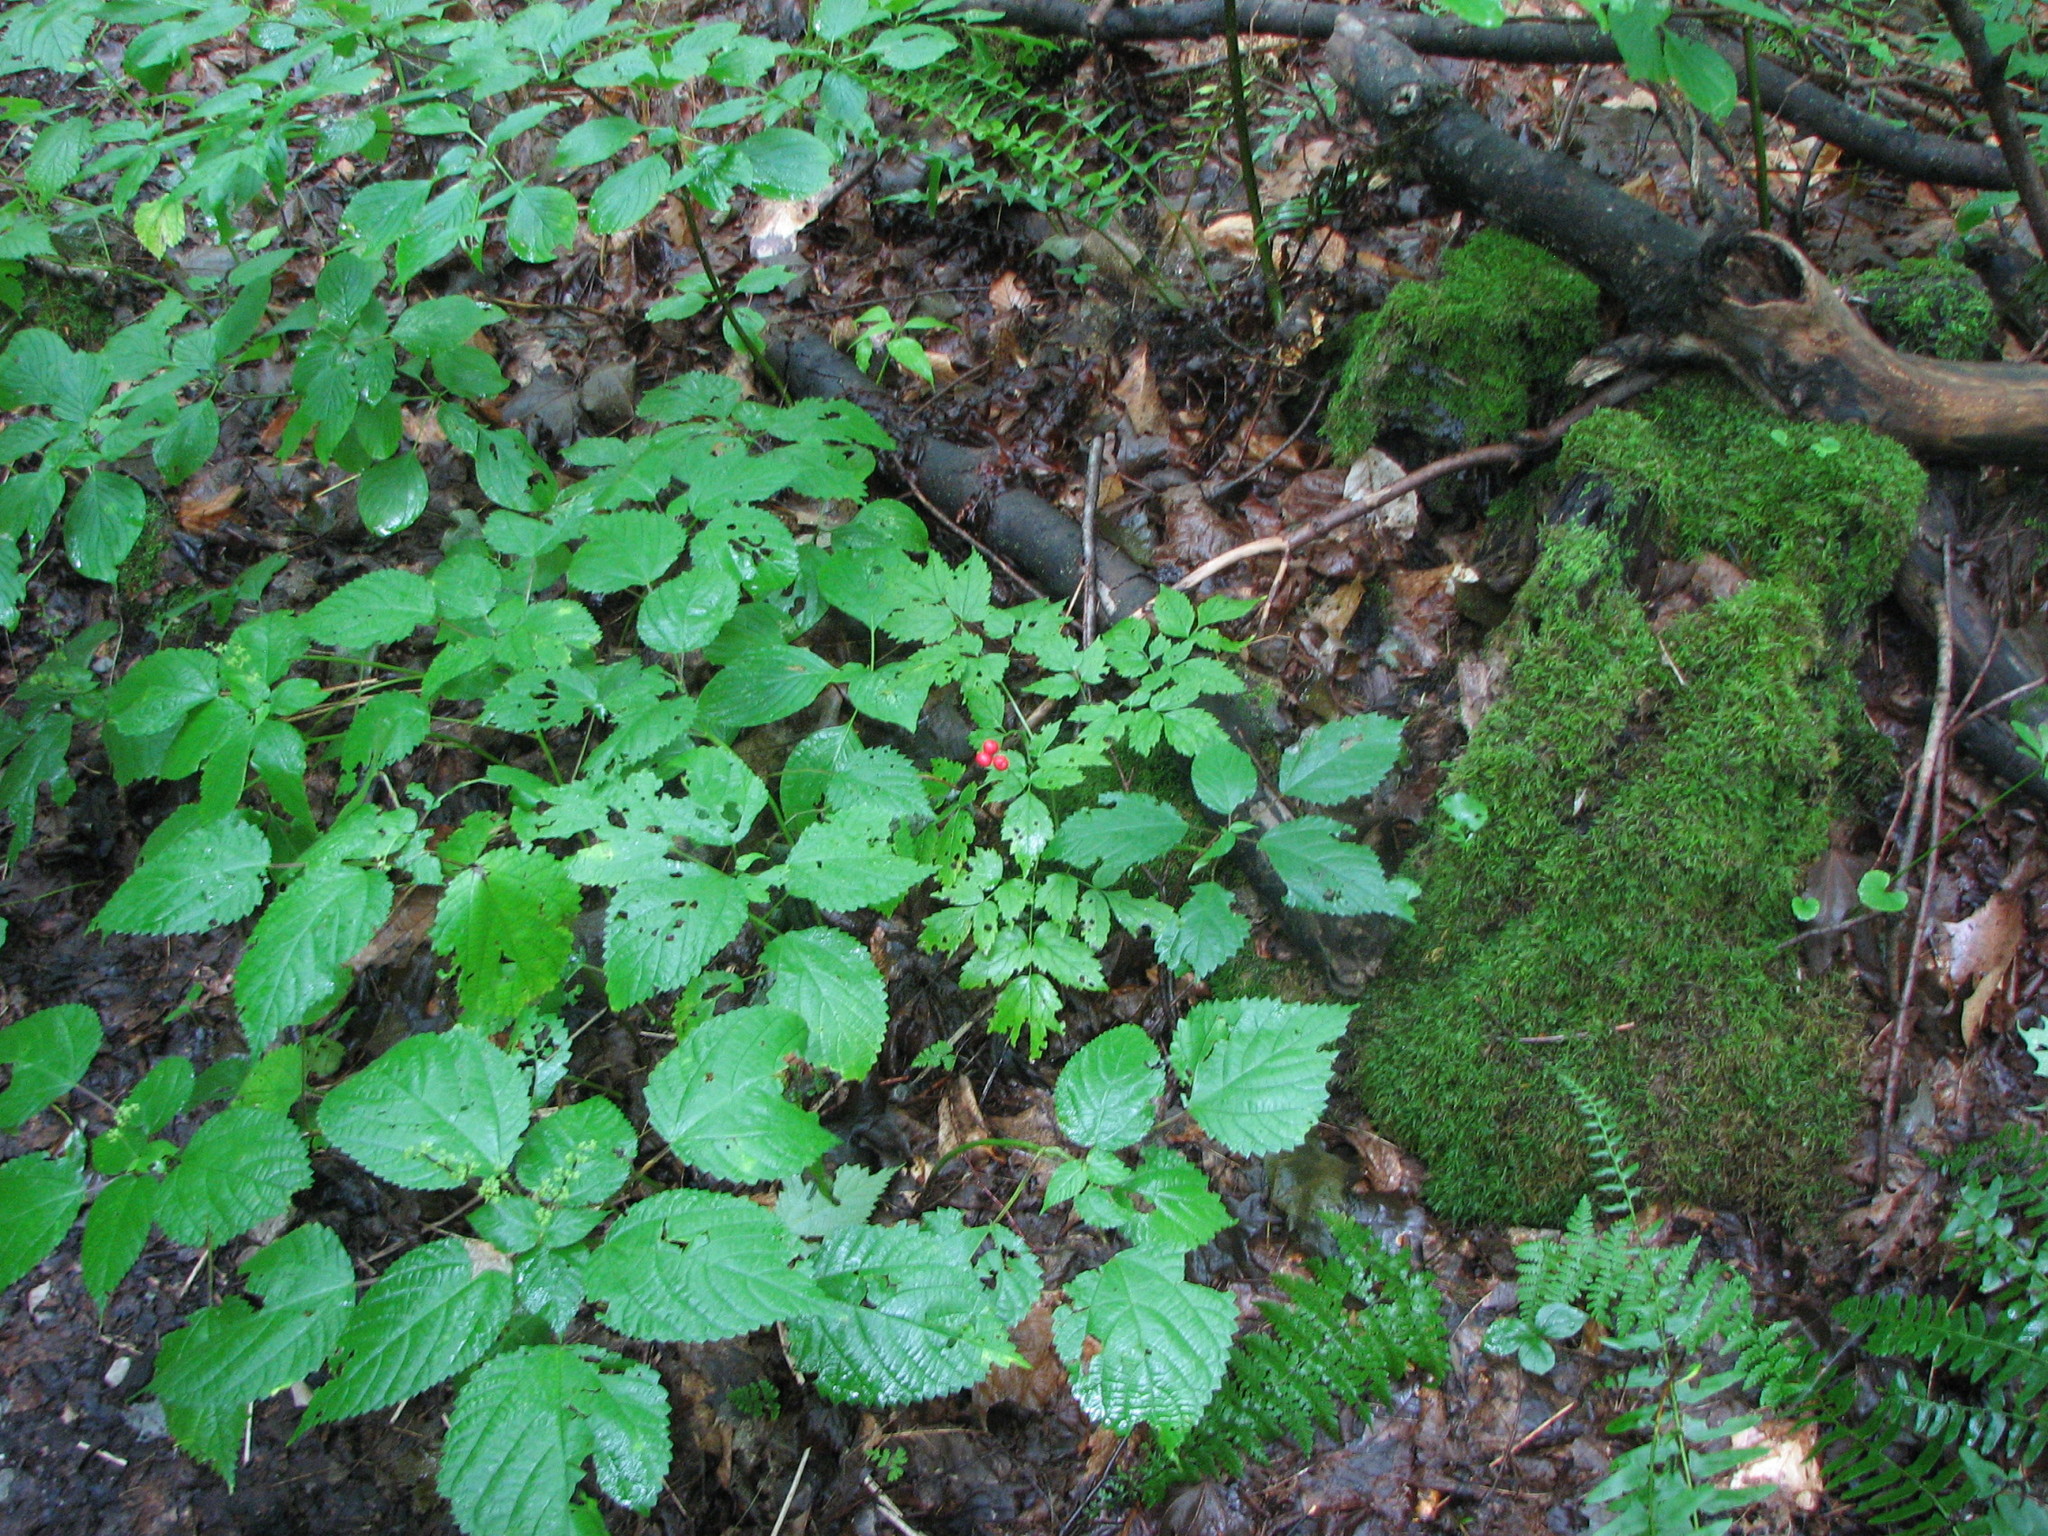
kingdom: Plantae
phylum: Tracheophyta
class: Magnoliopsida
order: Ranunculales
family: Ranunculaceae
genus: Actaea
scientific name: Actaea rubra
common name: Red baneberry
